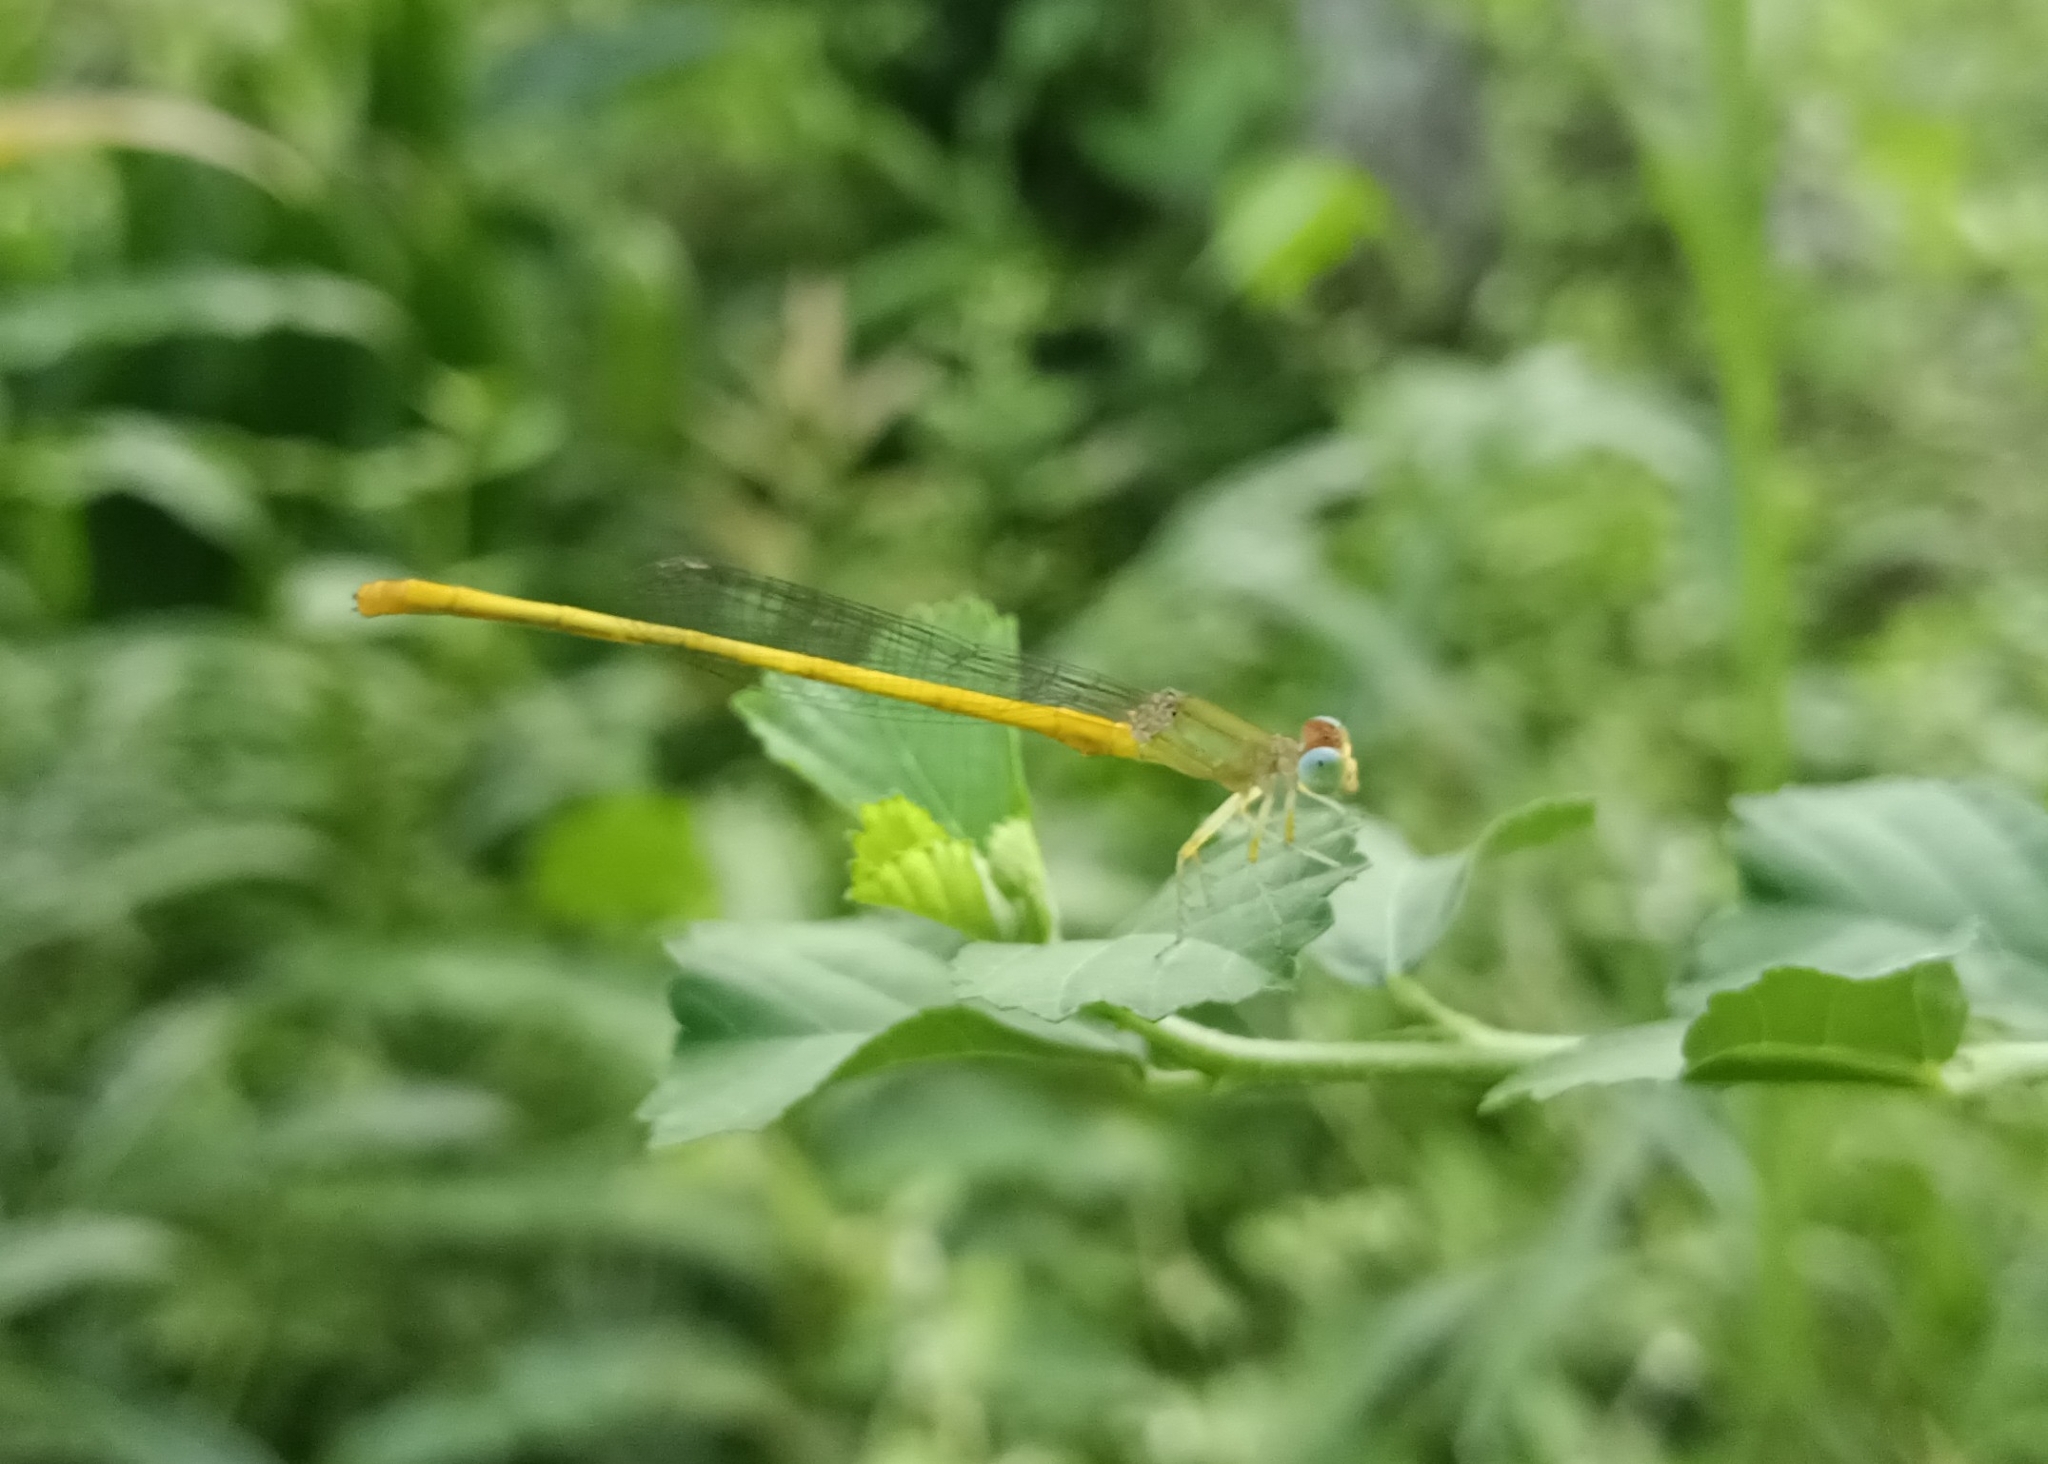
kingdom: Animalia
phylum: Arthropoda
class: Insecta
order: Odonata
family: Coenagrionidae
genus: Ceriagrion
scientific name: Ceriagrion coromandelianum
